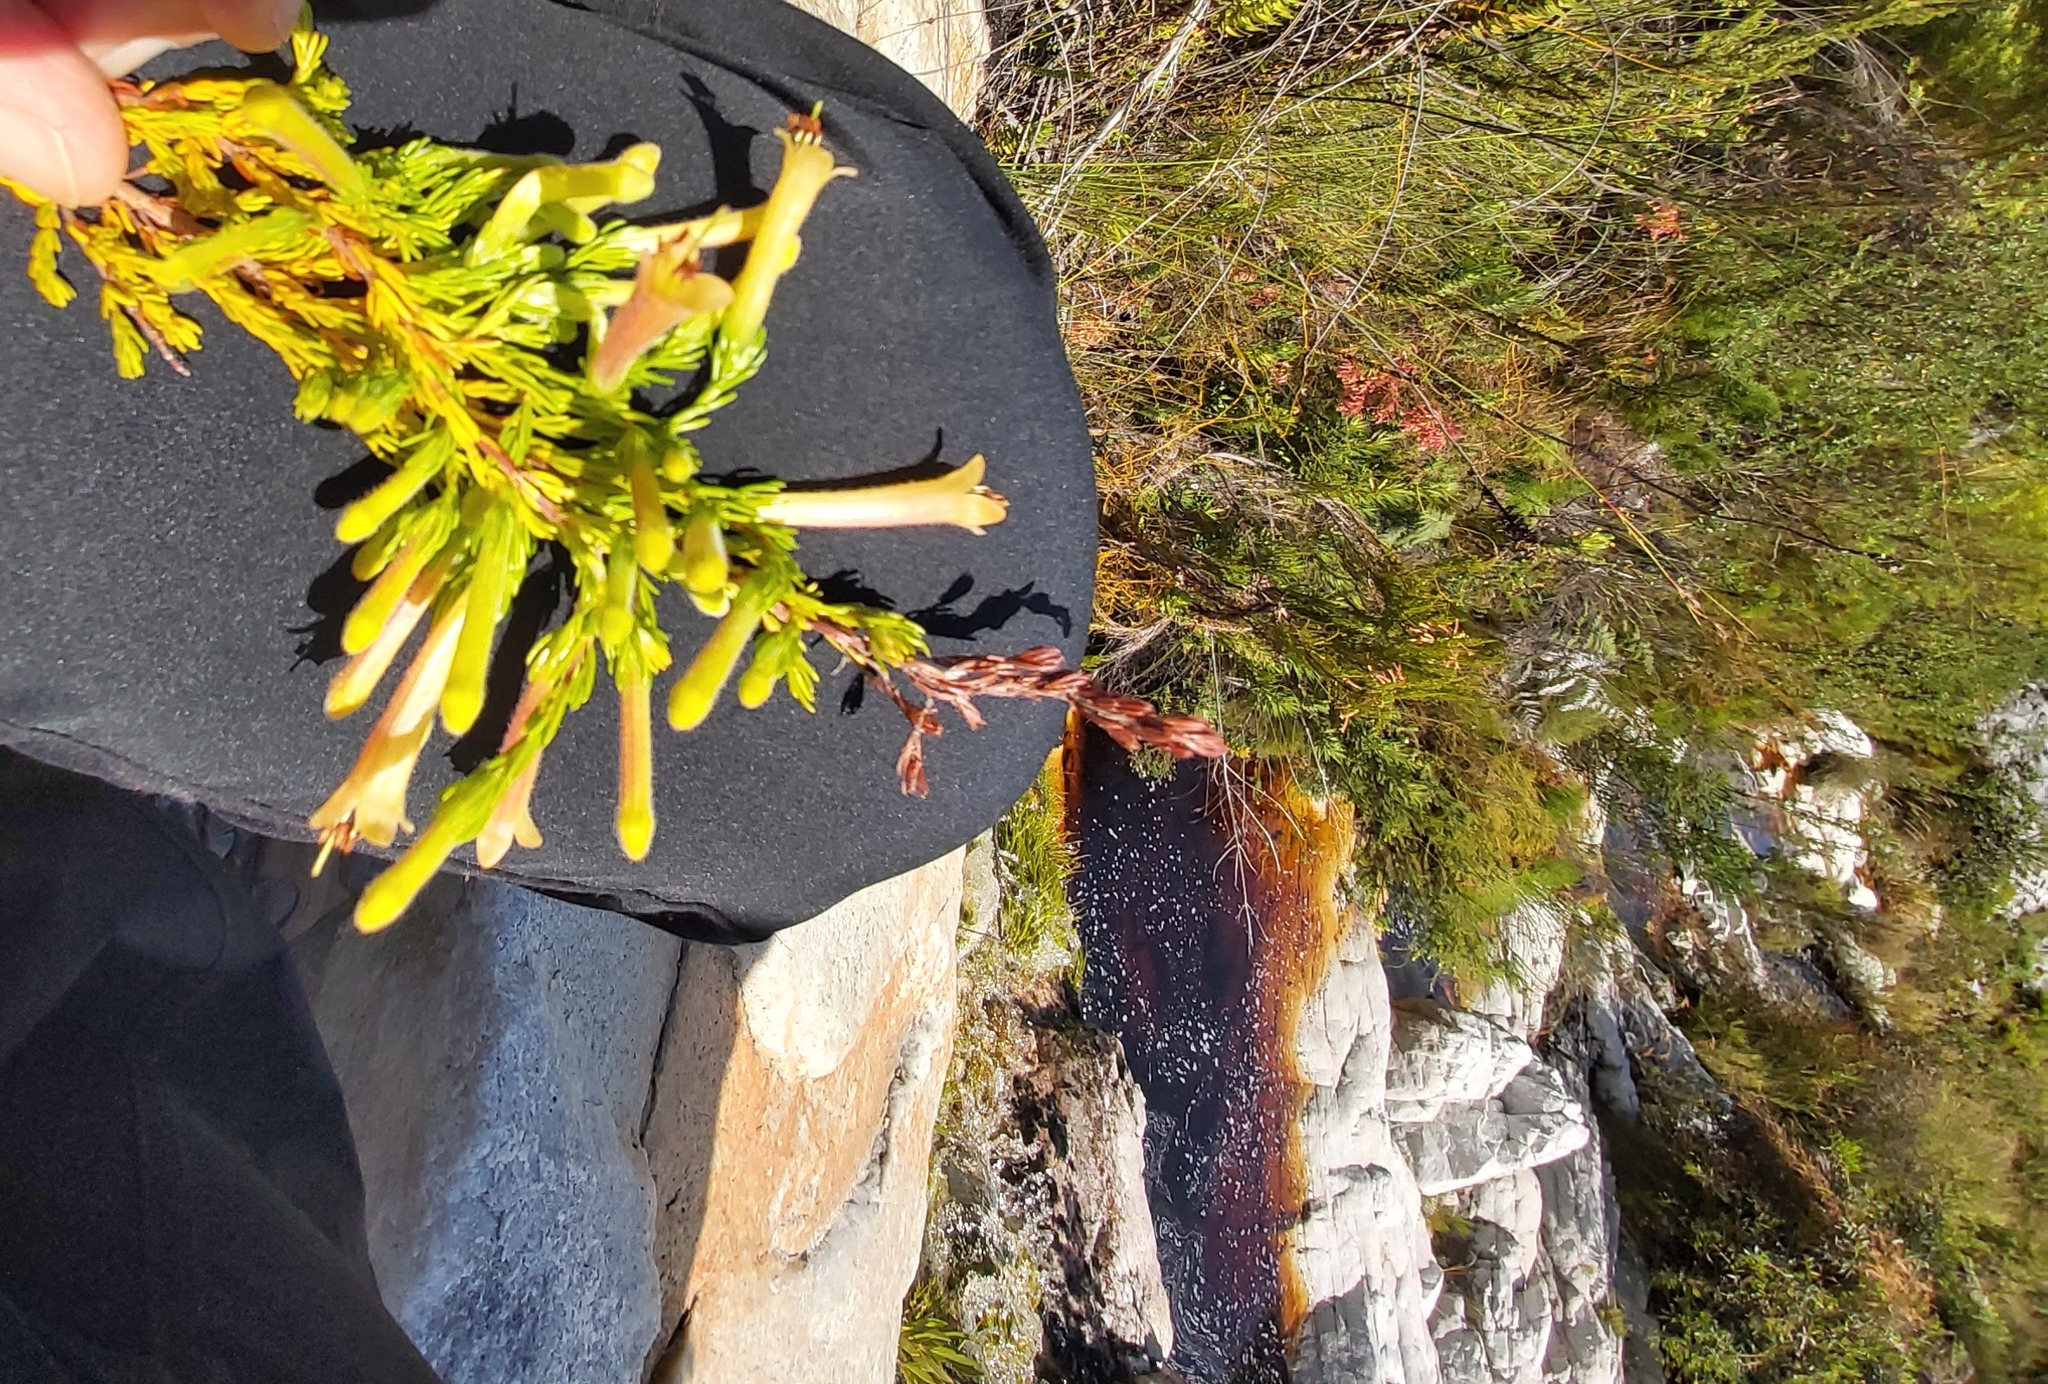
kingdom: Plantae
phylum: Tracheophyta
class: Magnoliopsida
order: Ericales
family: Ericaceae
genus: Erica
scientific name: Erica curviflora
